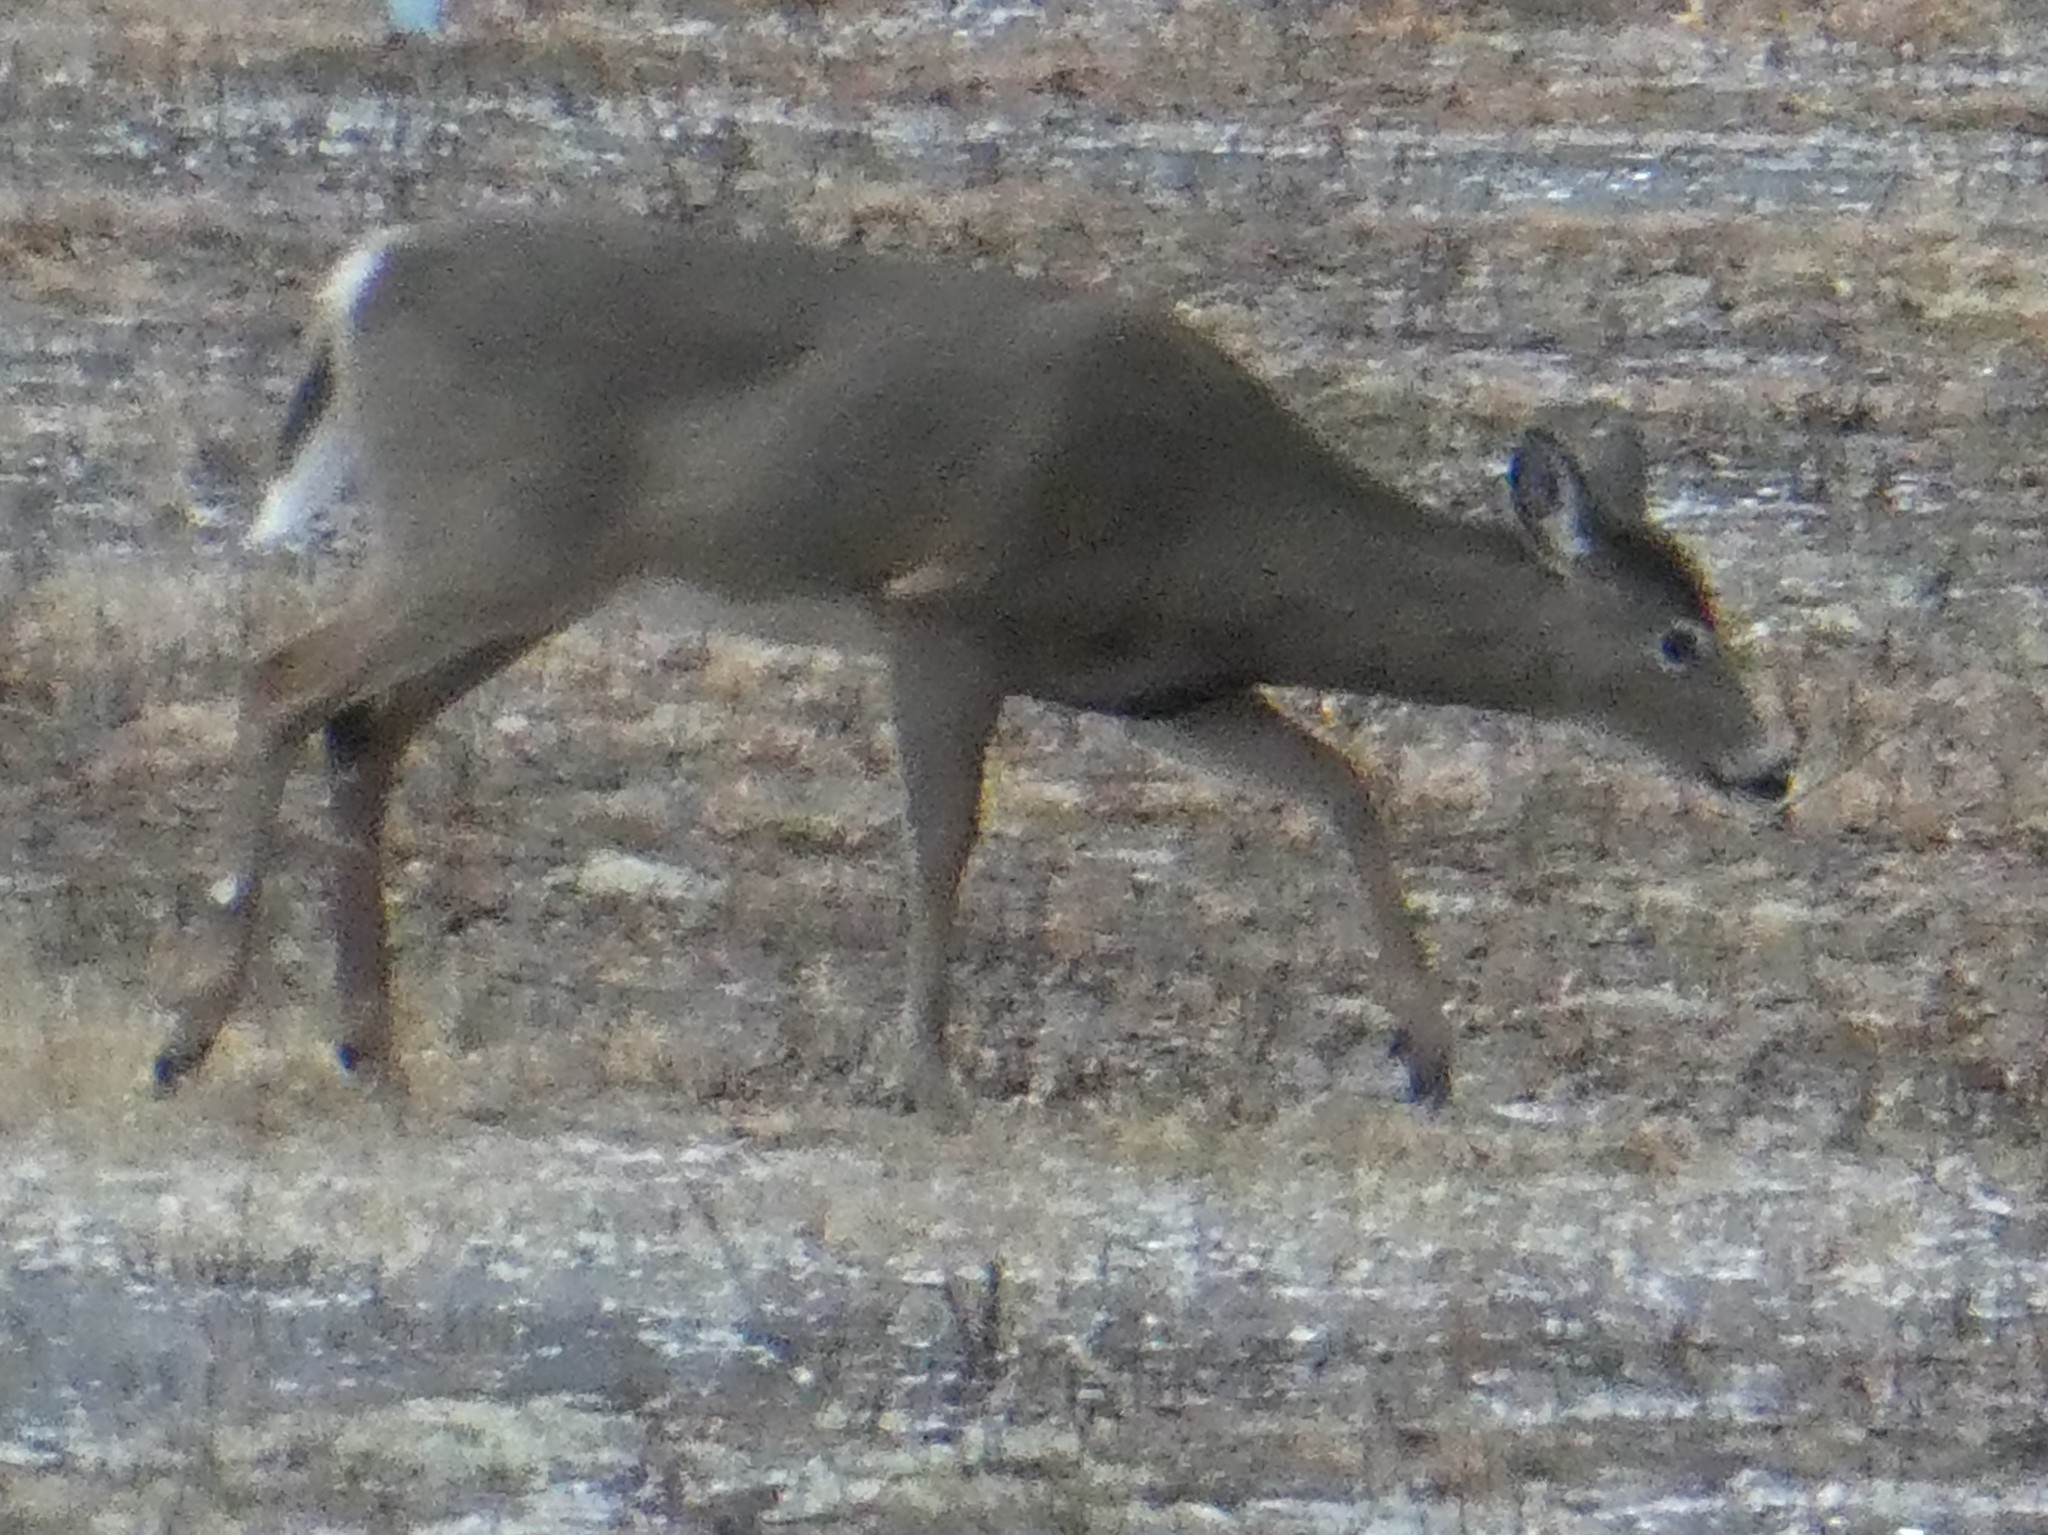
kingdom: Animalia
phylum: Chordata
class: Mammalia
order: Artiodactyla
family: Cervidae
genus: Odocoileus
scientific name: Odocoileus virginianus
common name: White-tailed deer
